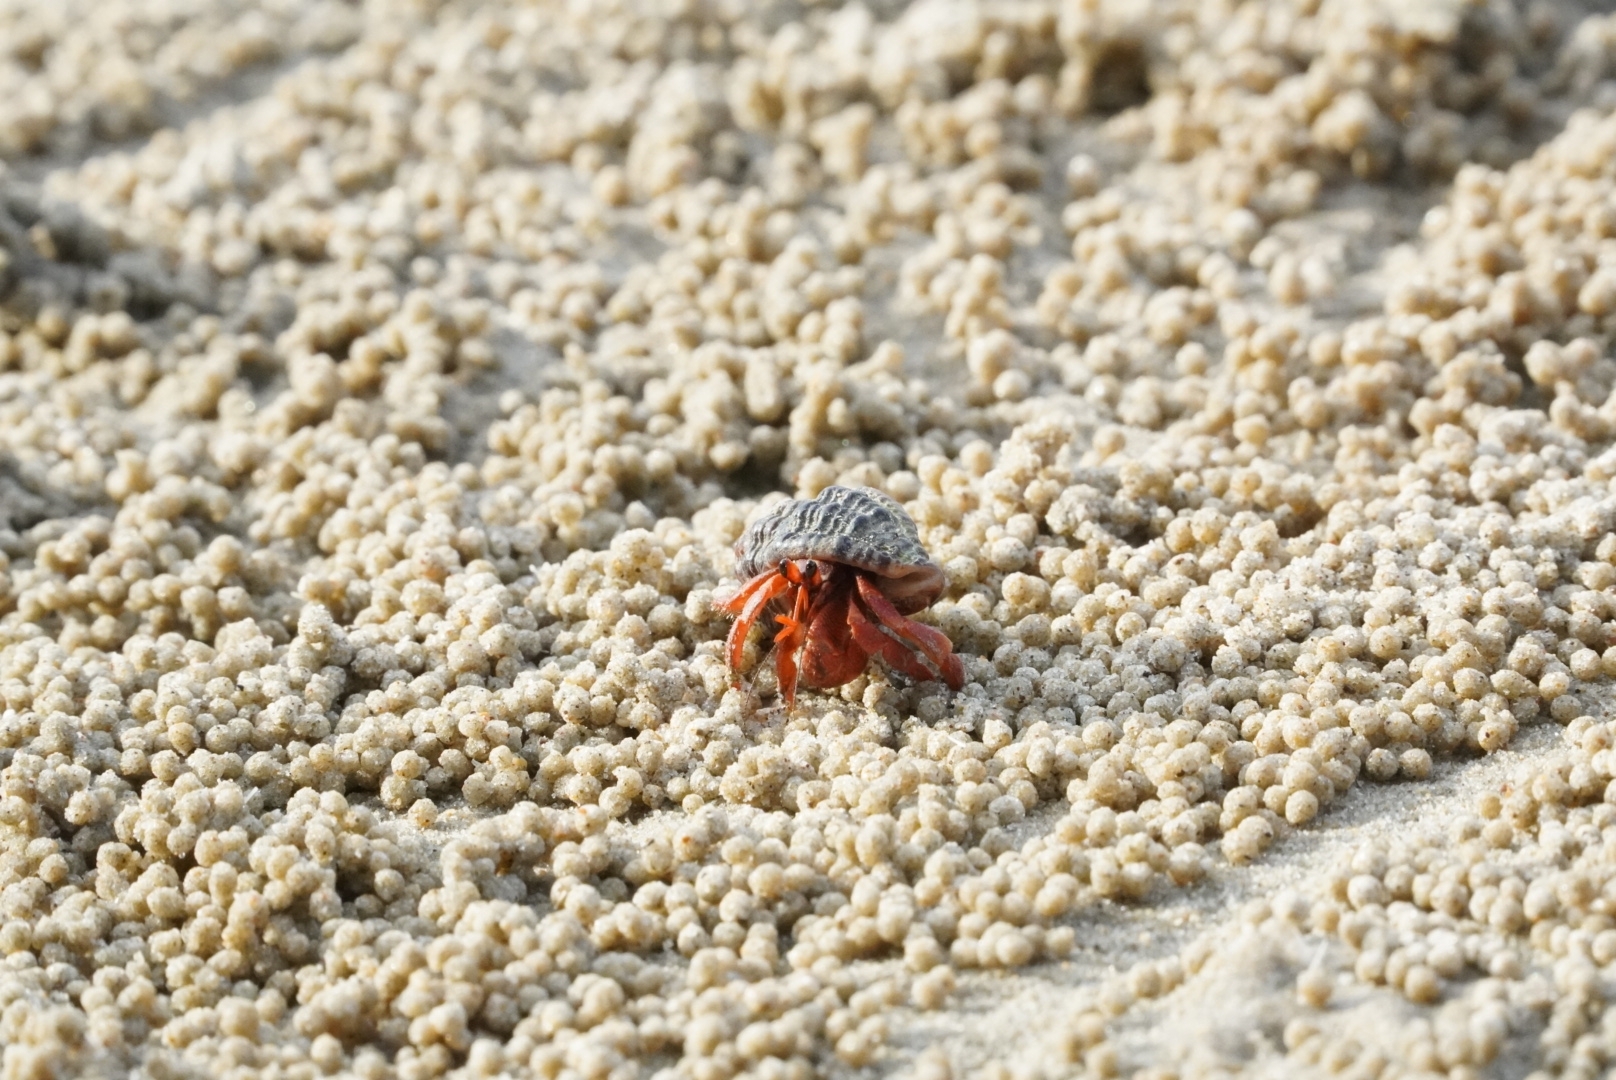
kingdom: Animalia
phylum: Arthropoda
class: Malacostraca
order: Decapoda
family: Coenobitidae
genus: Coenobita
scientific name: Coenobita violascens
